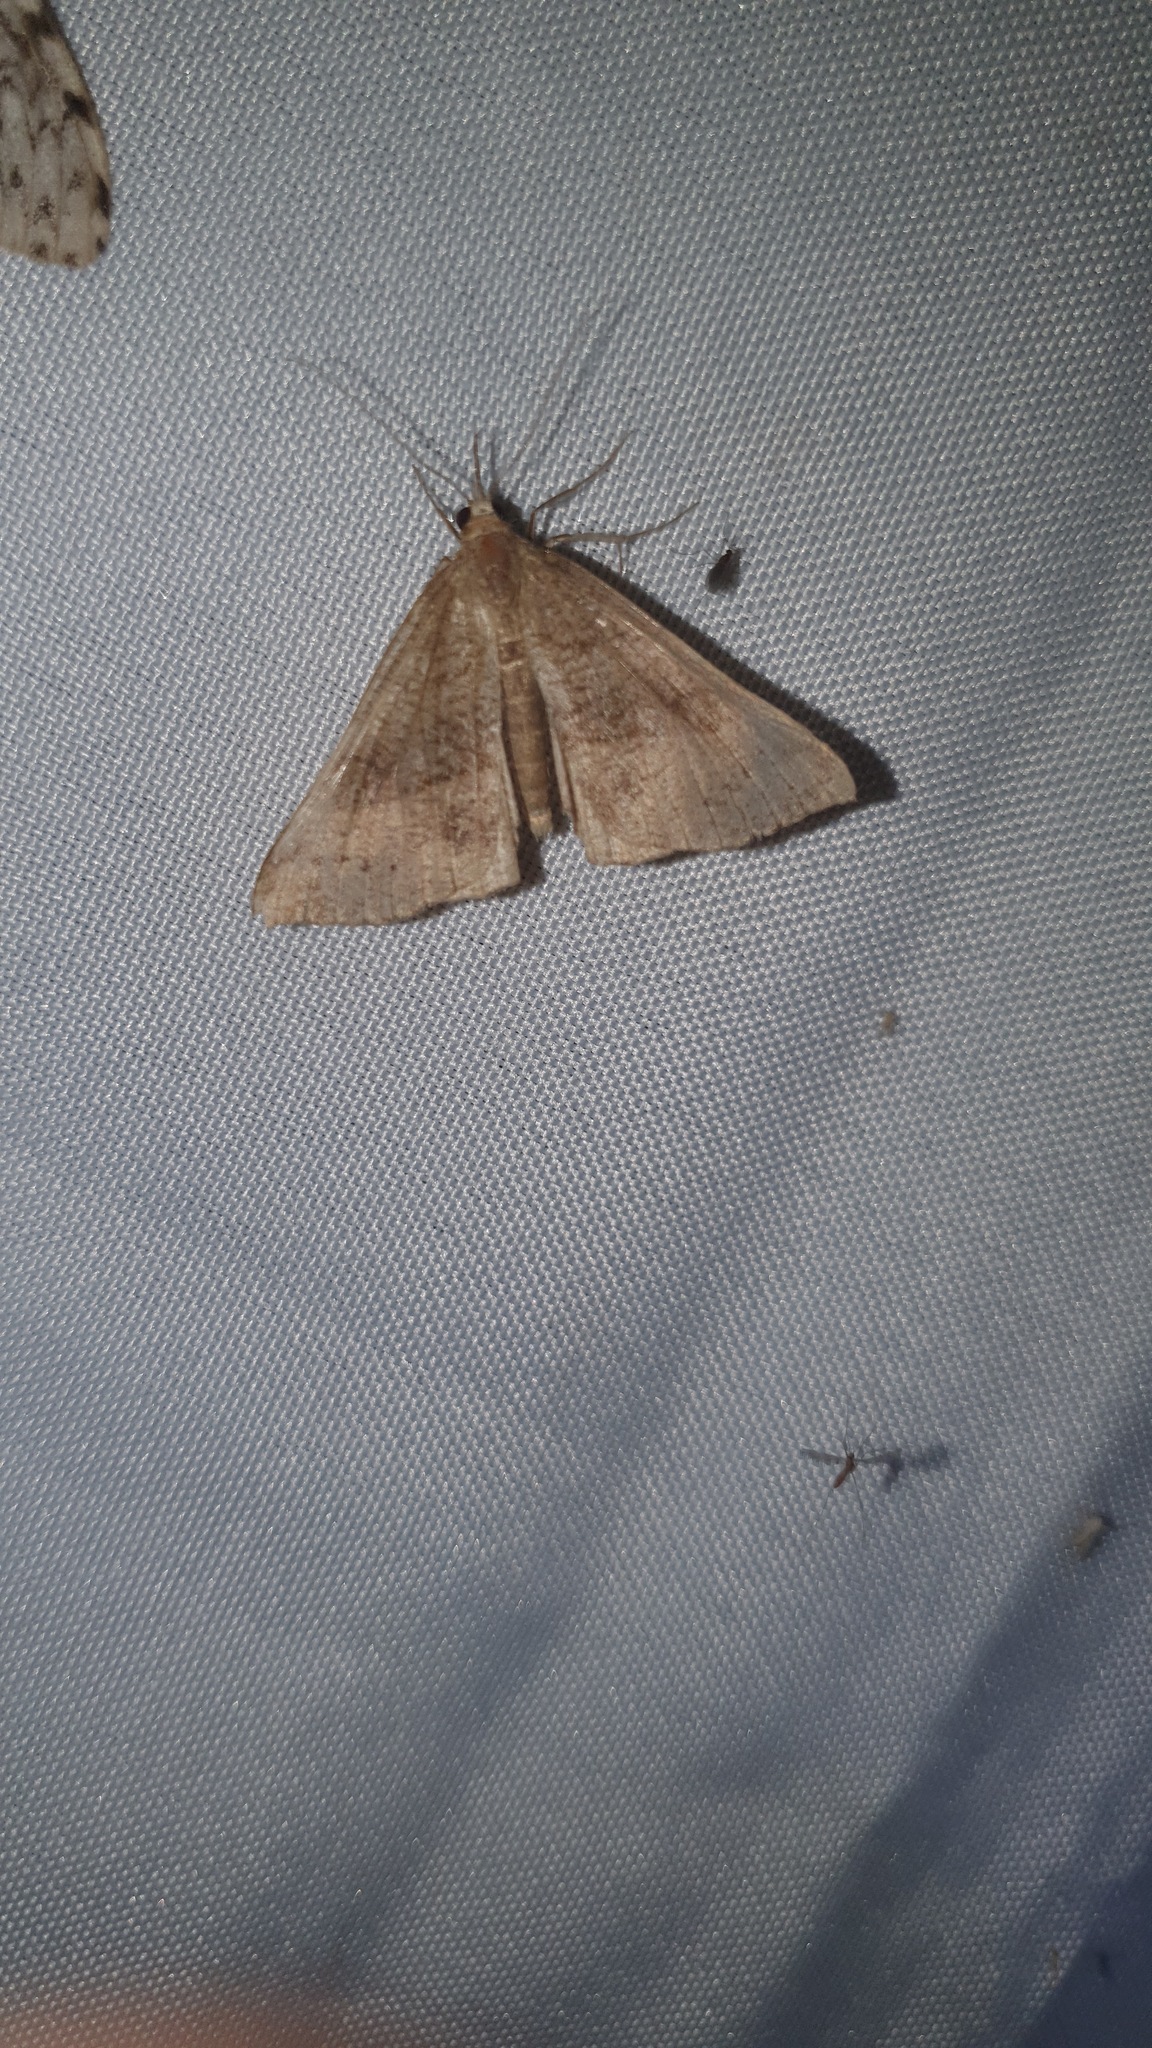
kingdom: Animalia
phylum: Arthropoda
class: Insecta
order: Lepidoptera
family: Erebidae
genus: Hypena
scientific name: Hypena proboscidalis
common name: Snout
